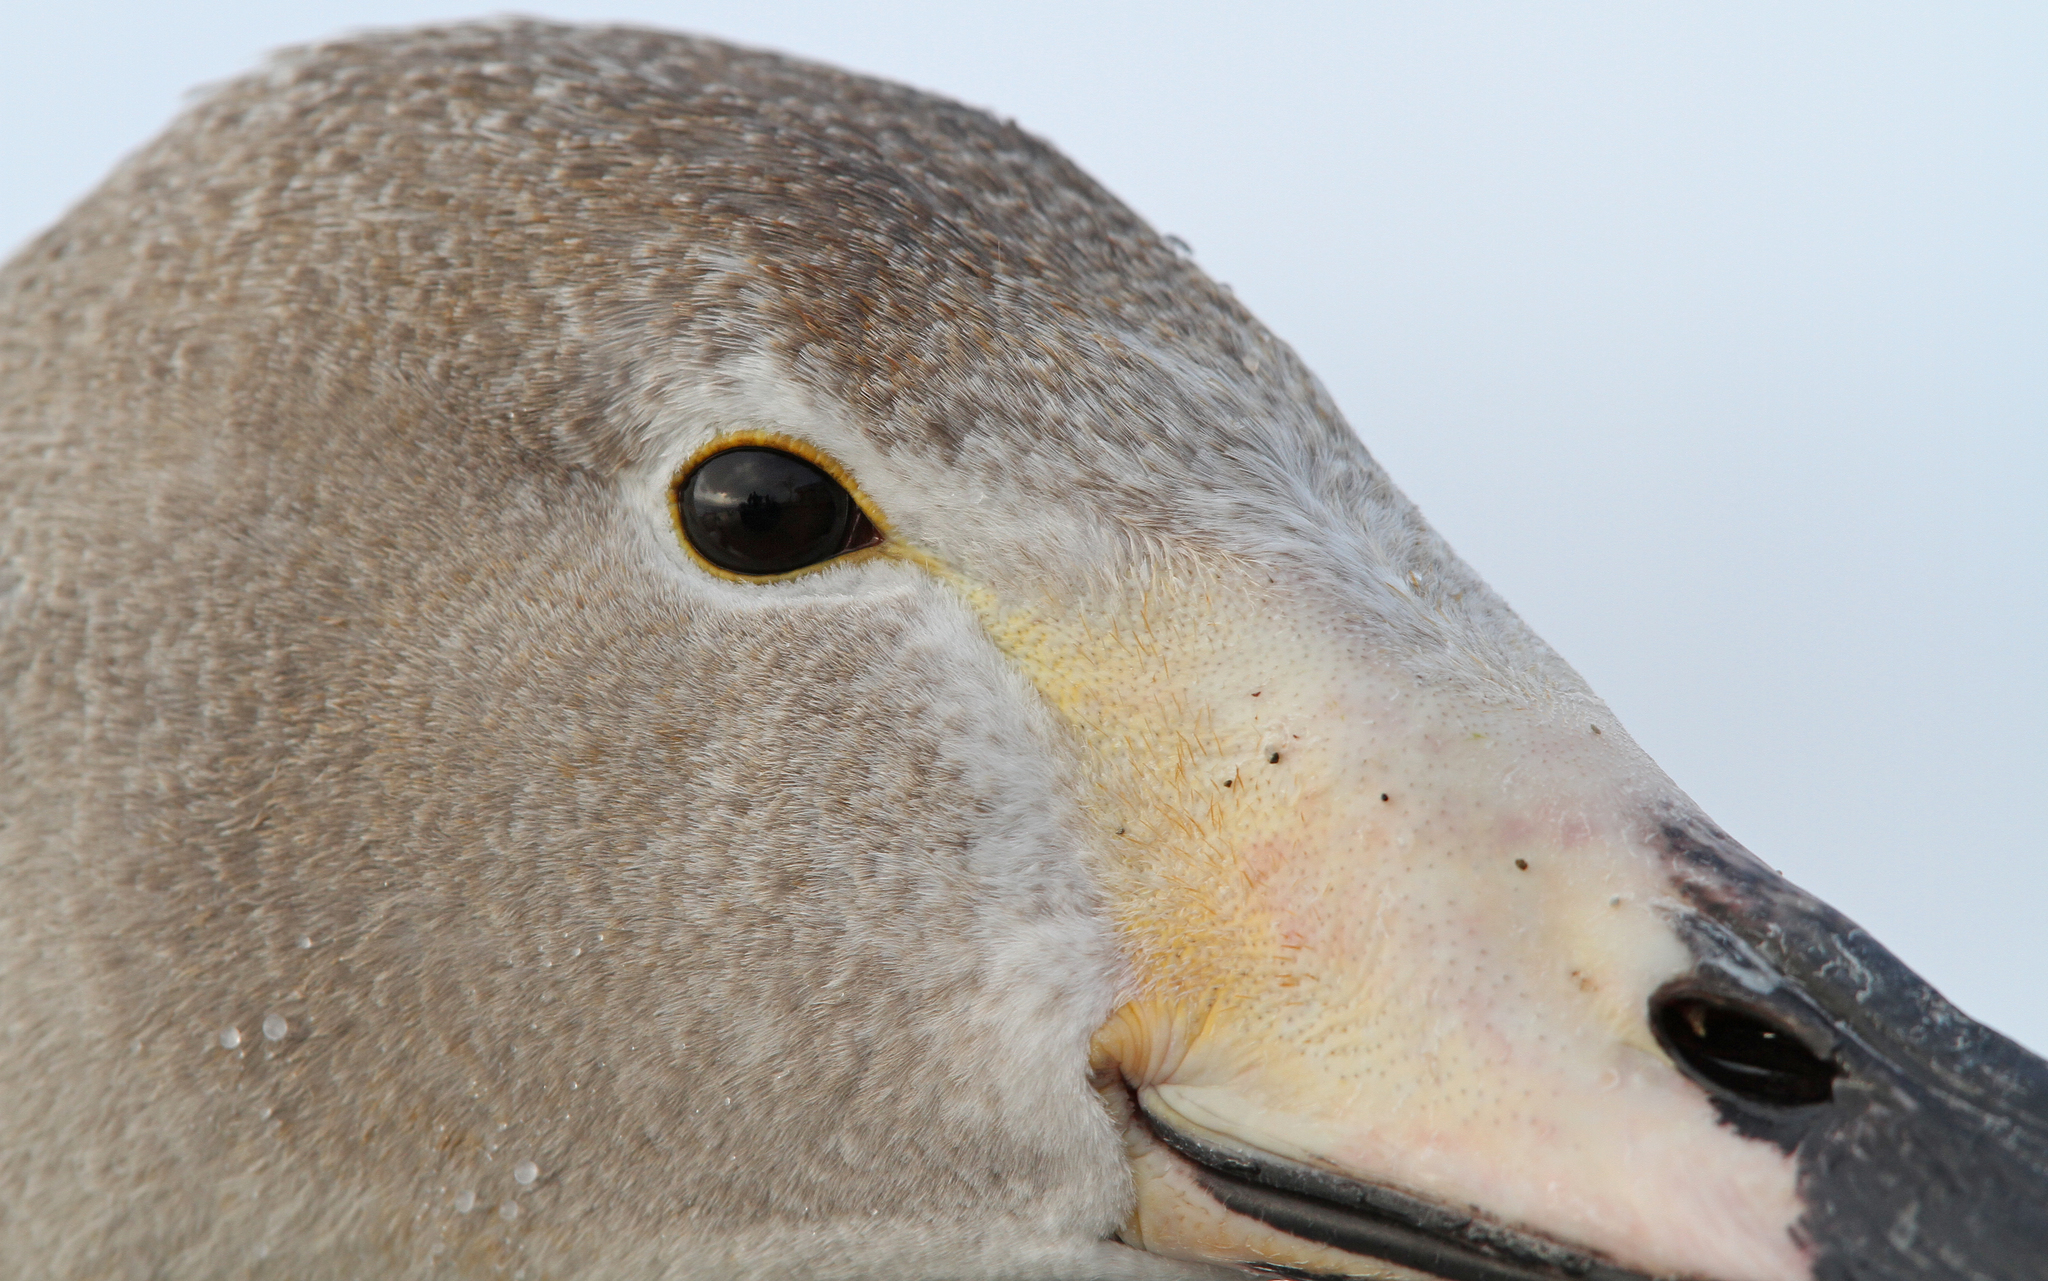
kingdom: Animalia
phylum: Chordata
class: Aves
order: Anseriformes
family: Anatidae
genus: Cygnus
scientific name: Cygnus cygnus
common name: Whooper swan
